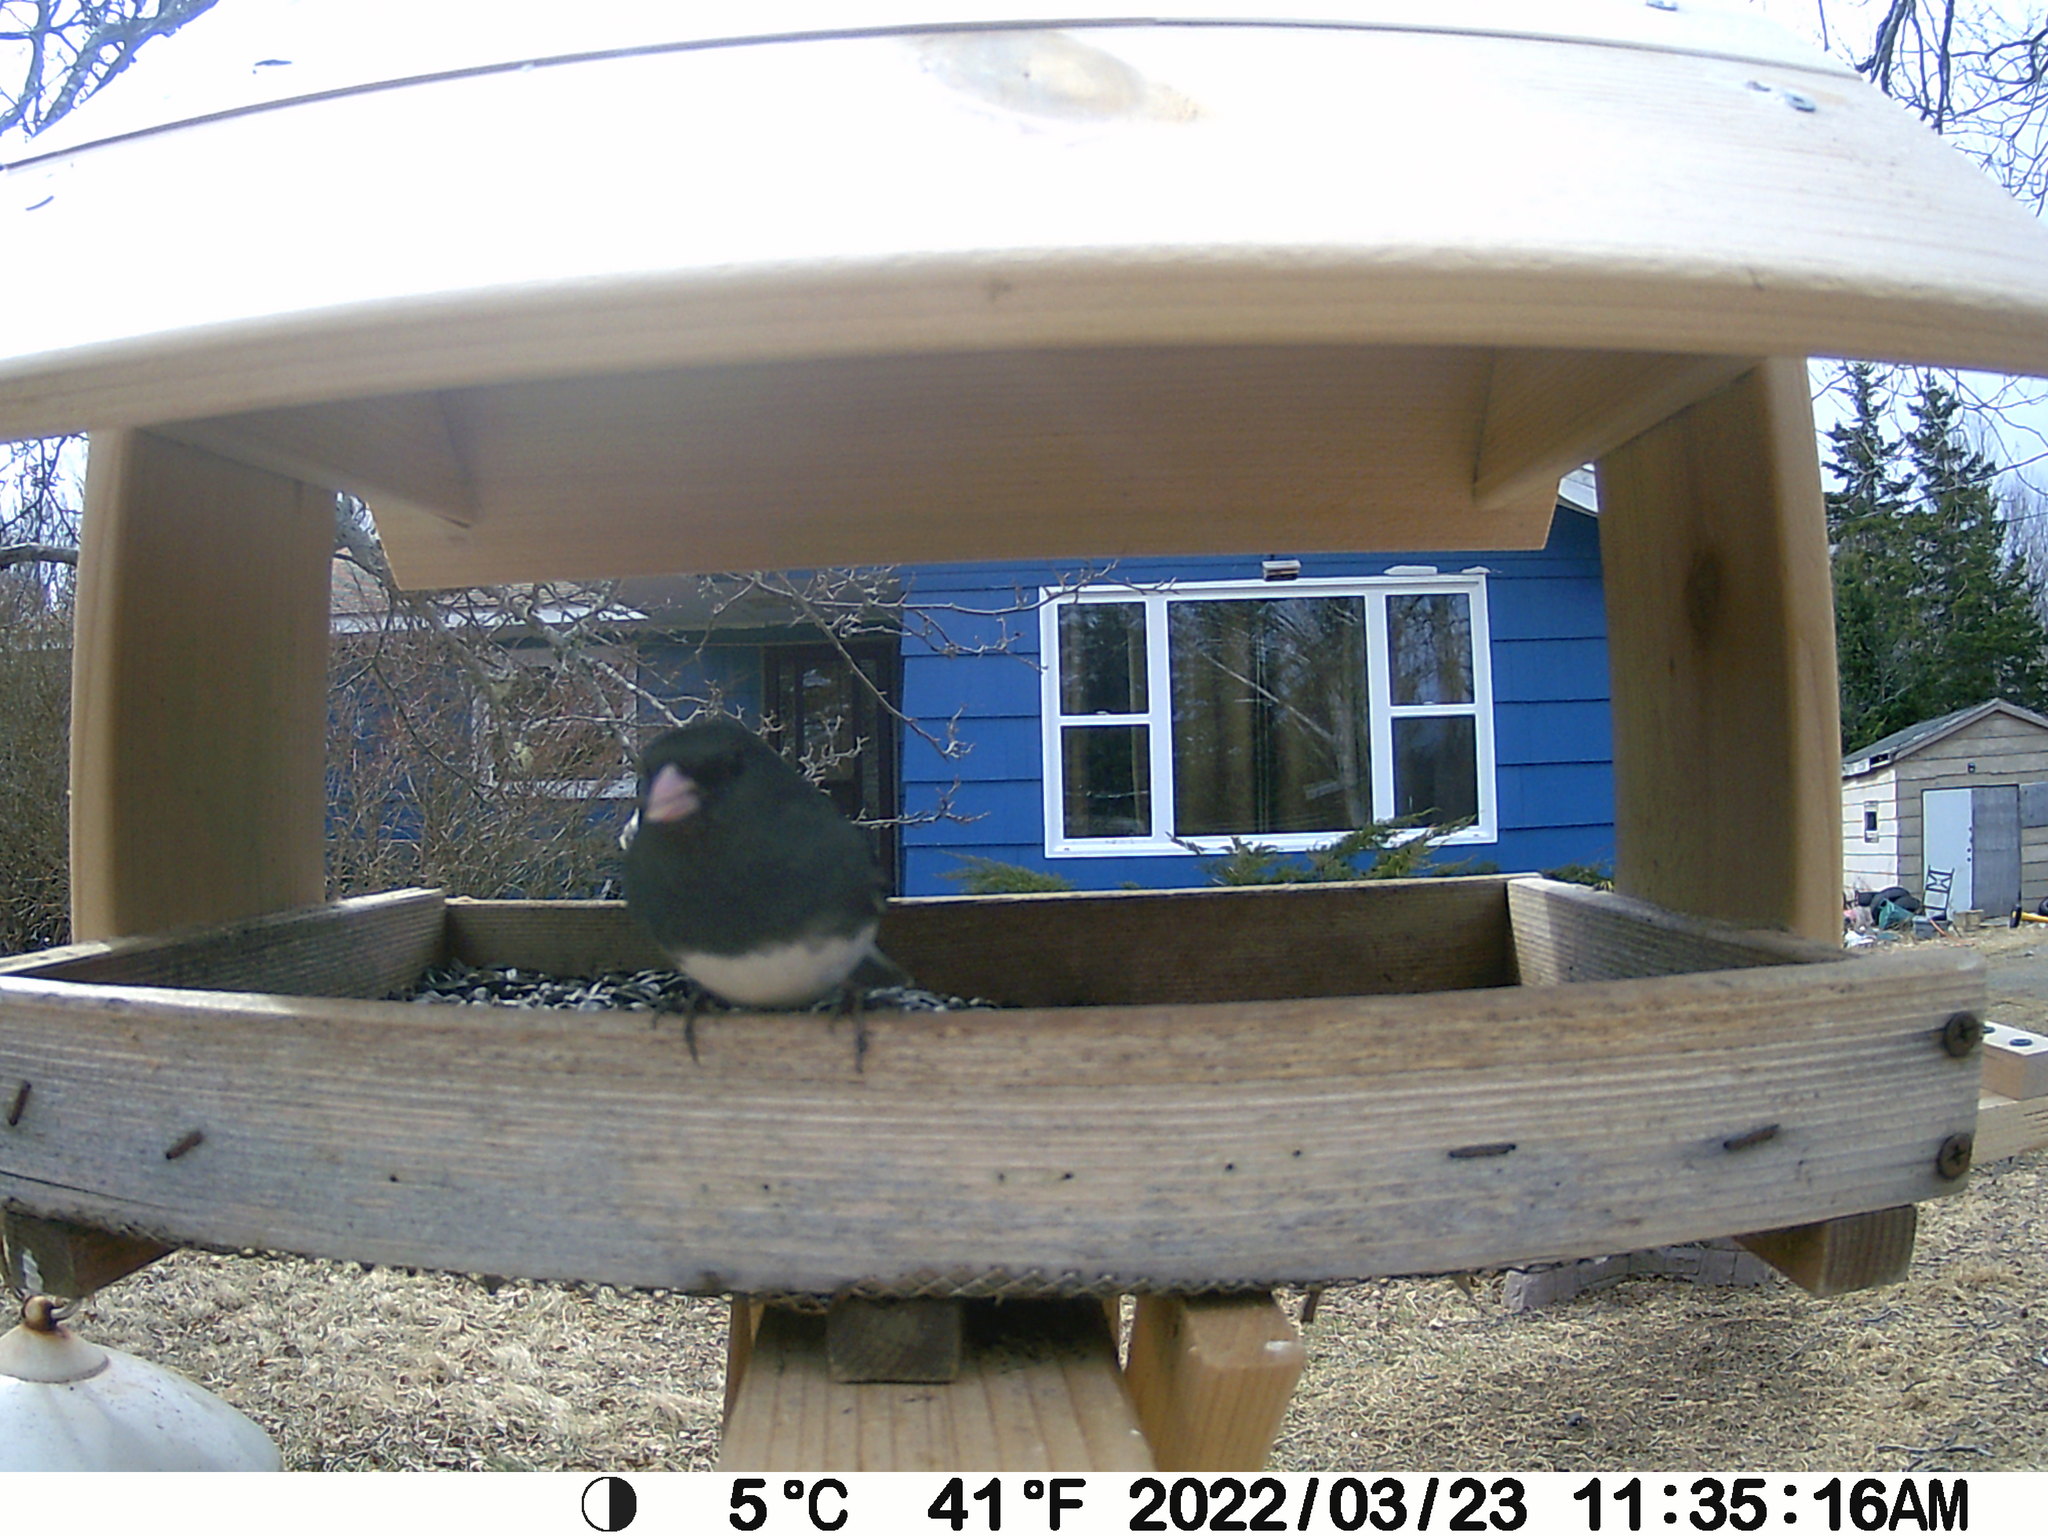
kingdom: Animalia
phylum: Chordata
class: Aves
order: Passeriformes
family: Passerellidae
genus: Junco
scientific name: Junco hyemalis
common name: Dark-eyed junco
